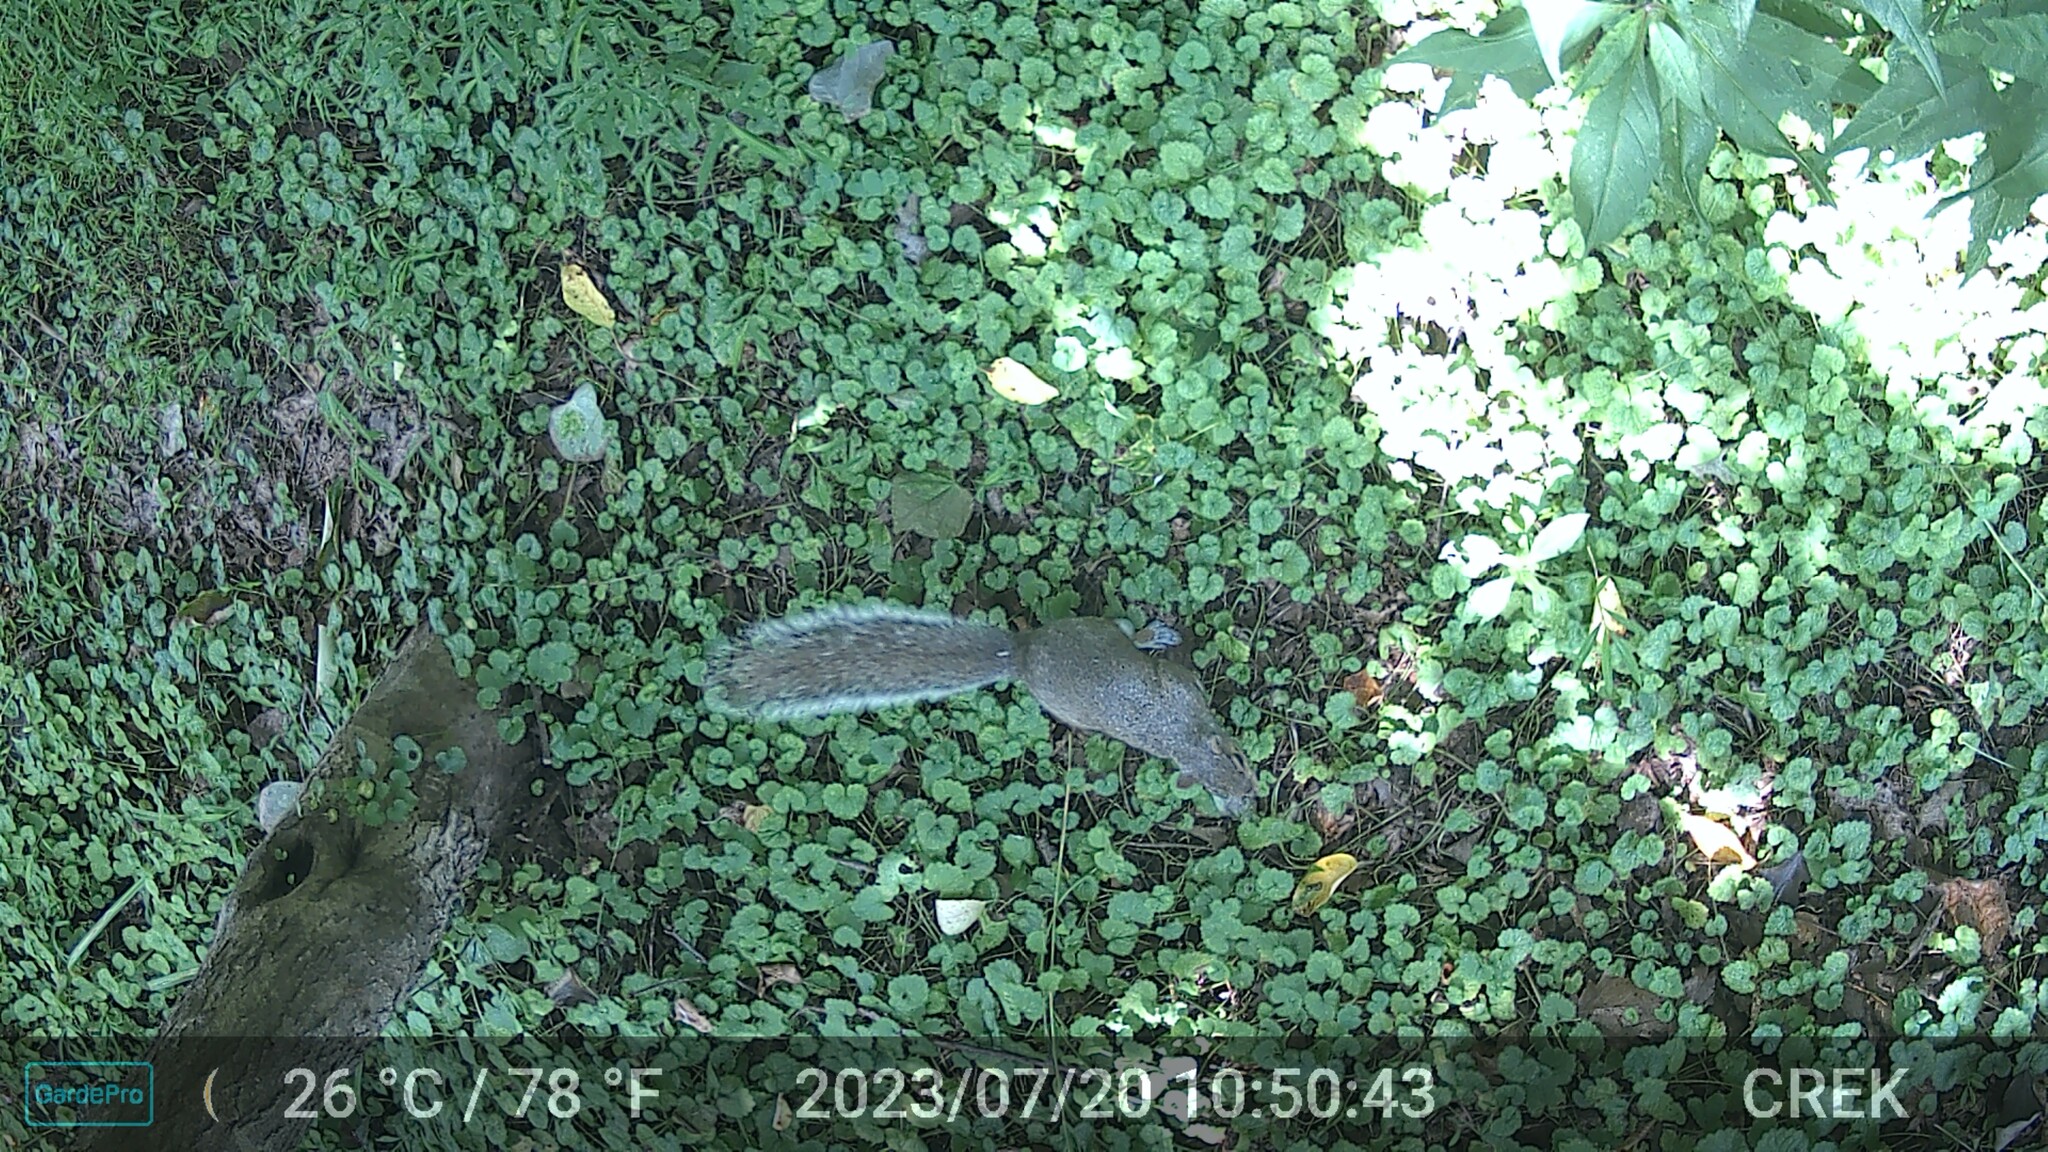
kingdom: Animalia
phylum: Chordata
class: Mammalia
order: Rodentia
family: Sciuridae
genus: Sciurus
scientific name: Sciurus carolinensis
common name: Eastern gray squirrel
